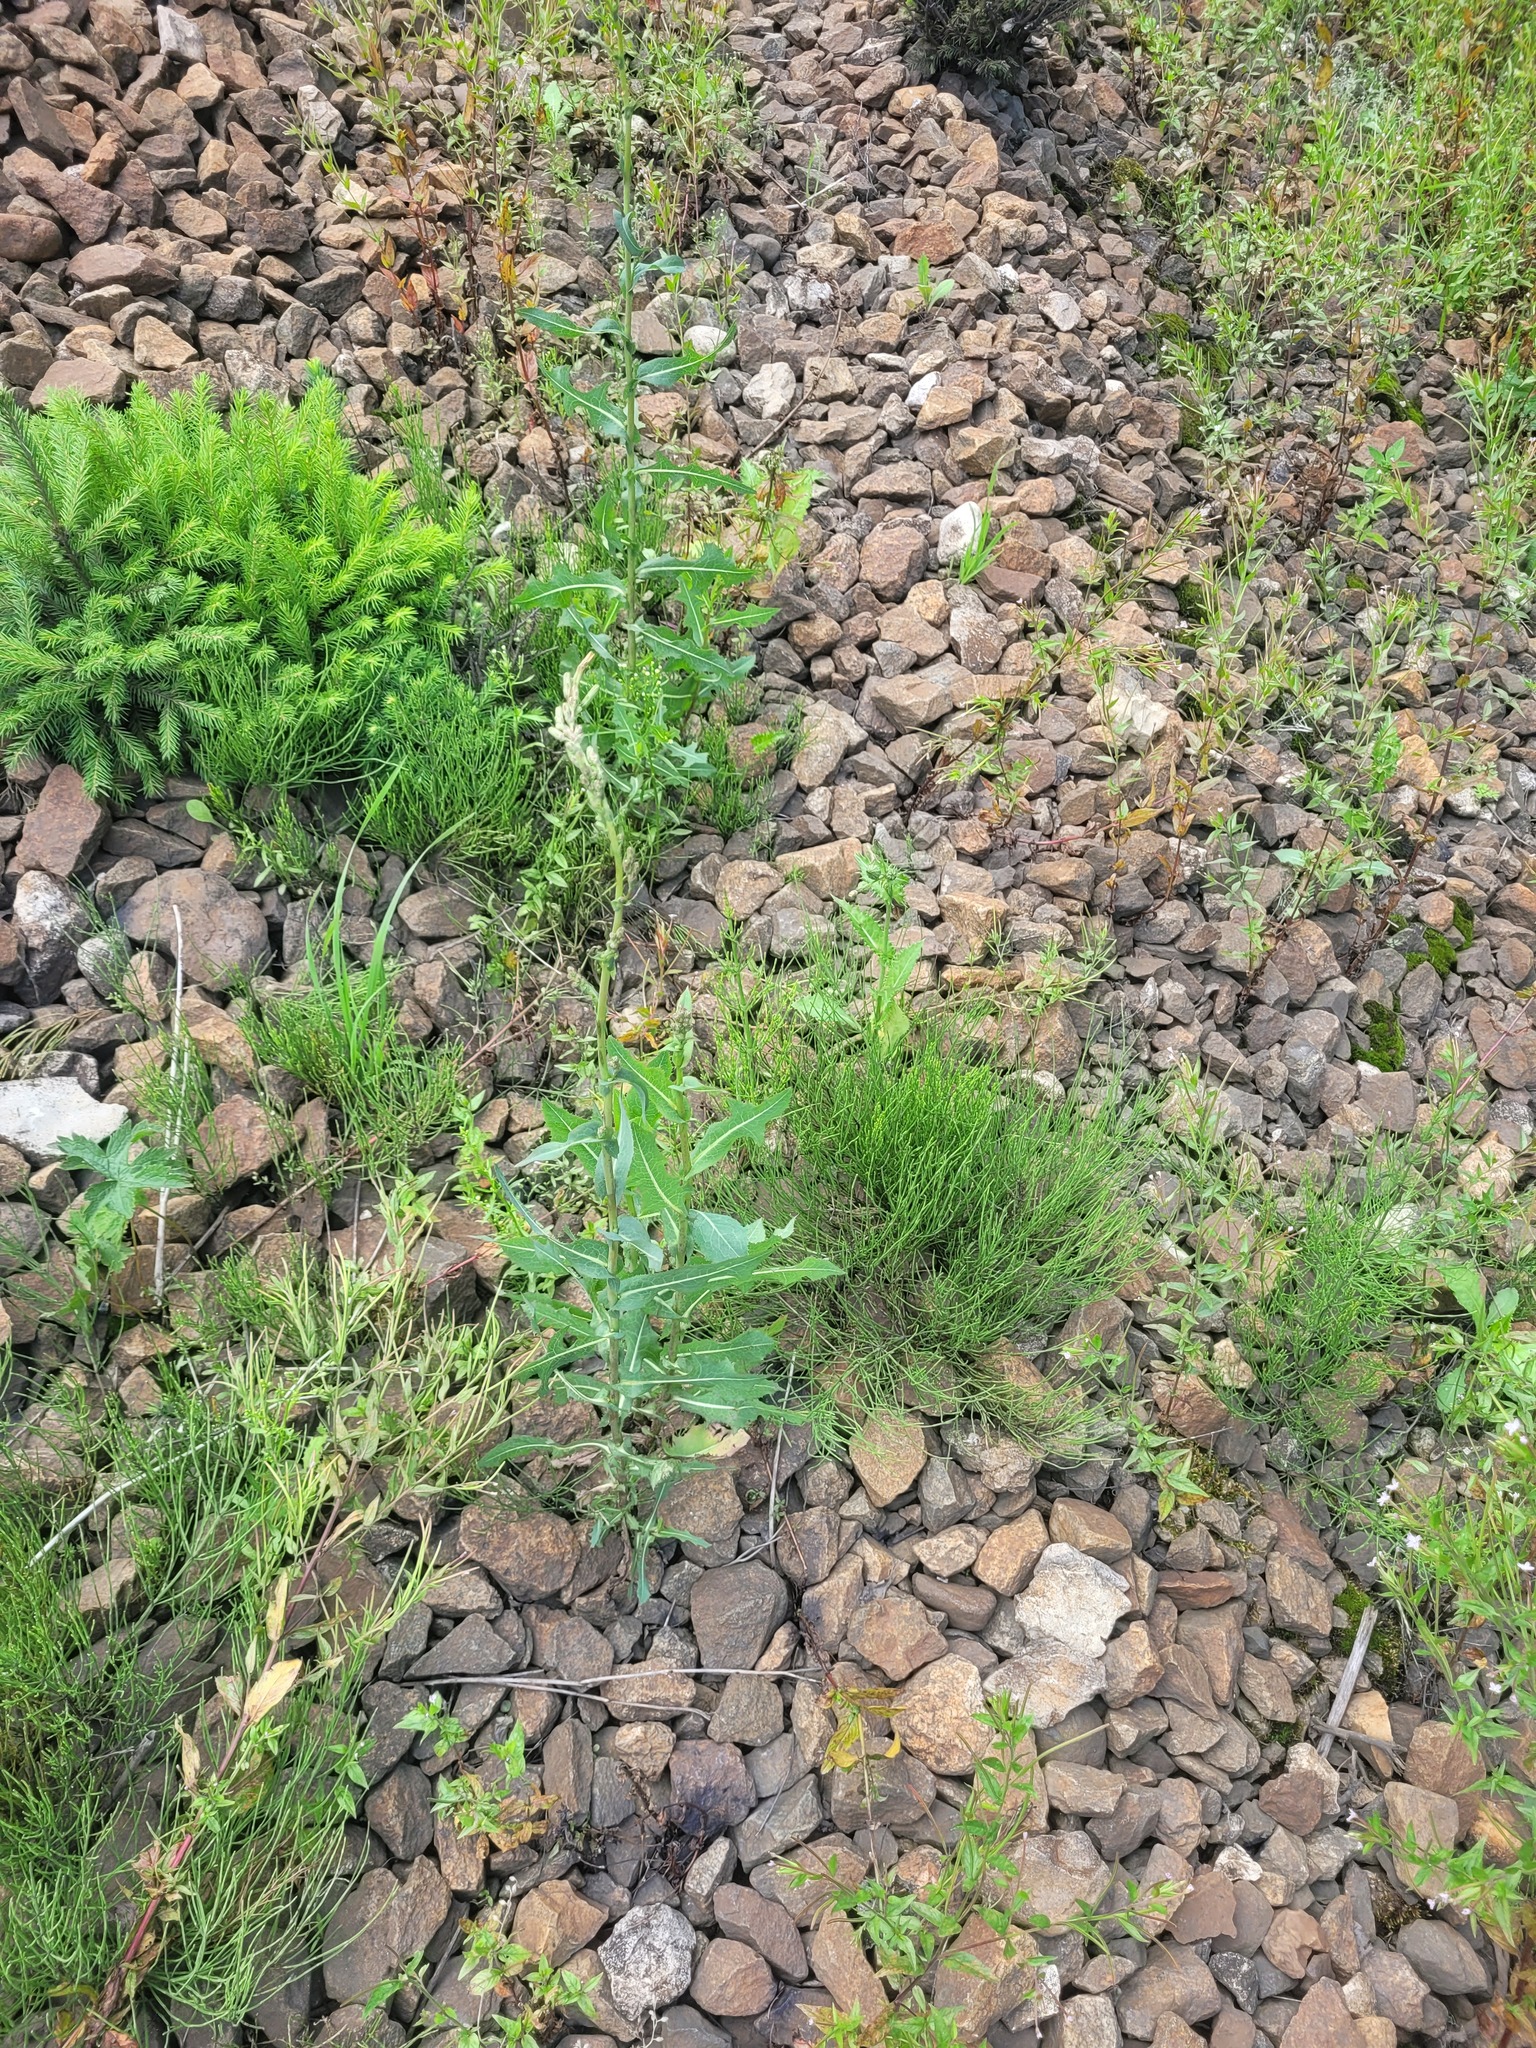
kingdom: Plantae
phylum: Tracheophyta
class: Magnoliopsida
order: Asterales
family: Asteraceae
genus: Lactuca
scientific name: Lactuca serriola
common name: Prickly lettuce
